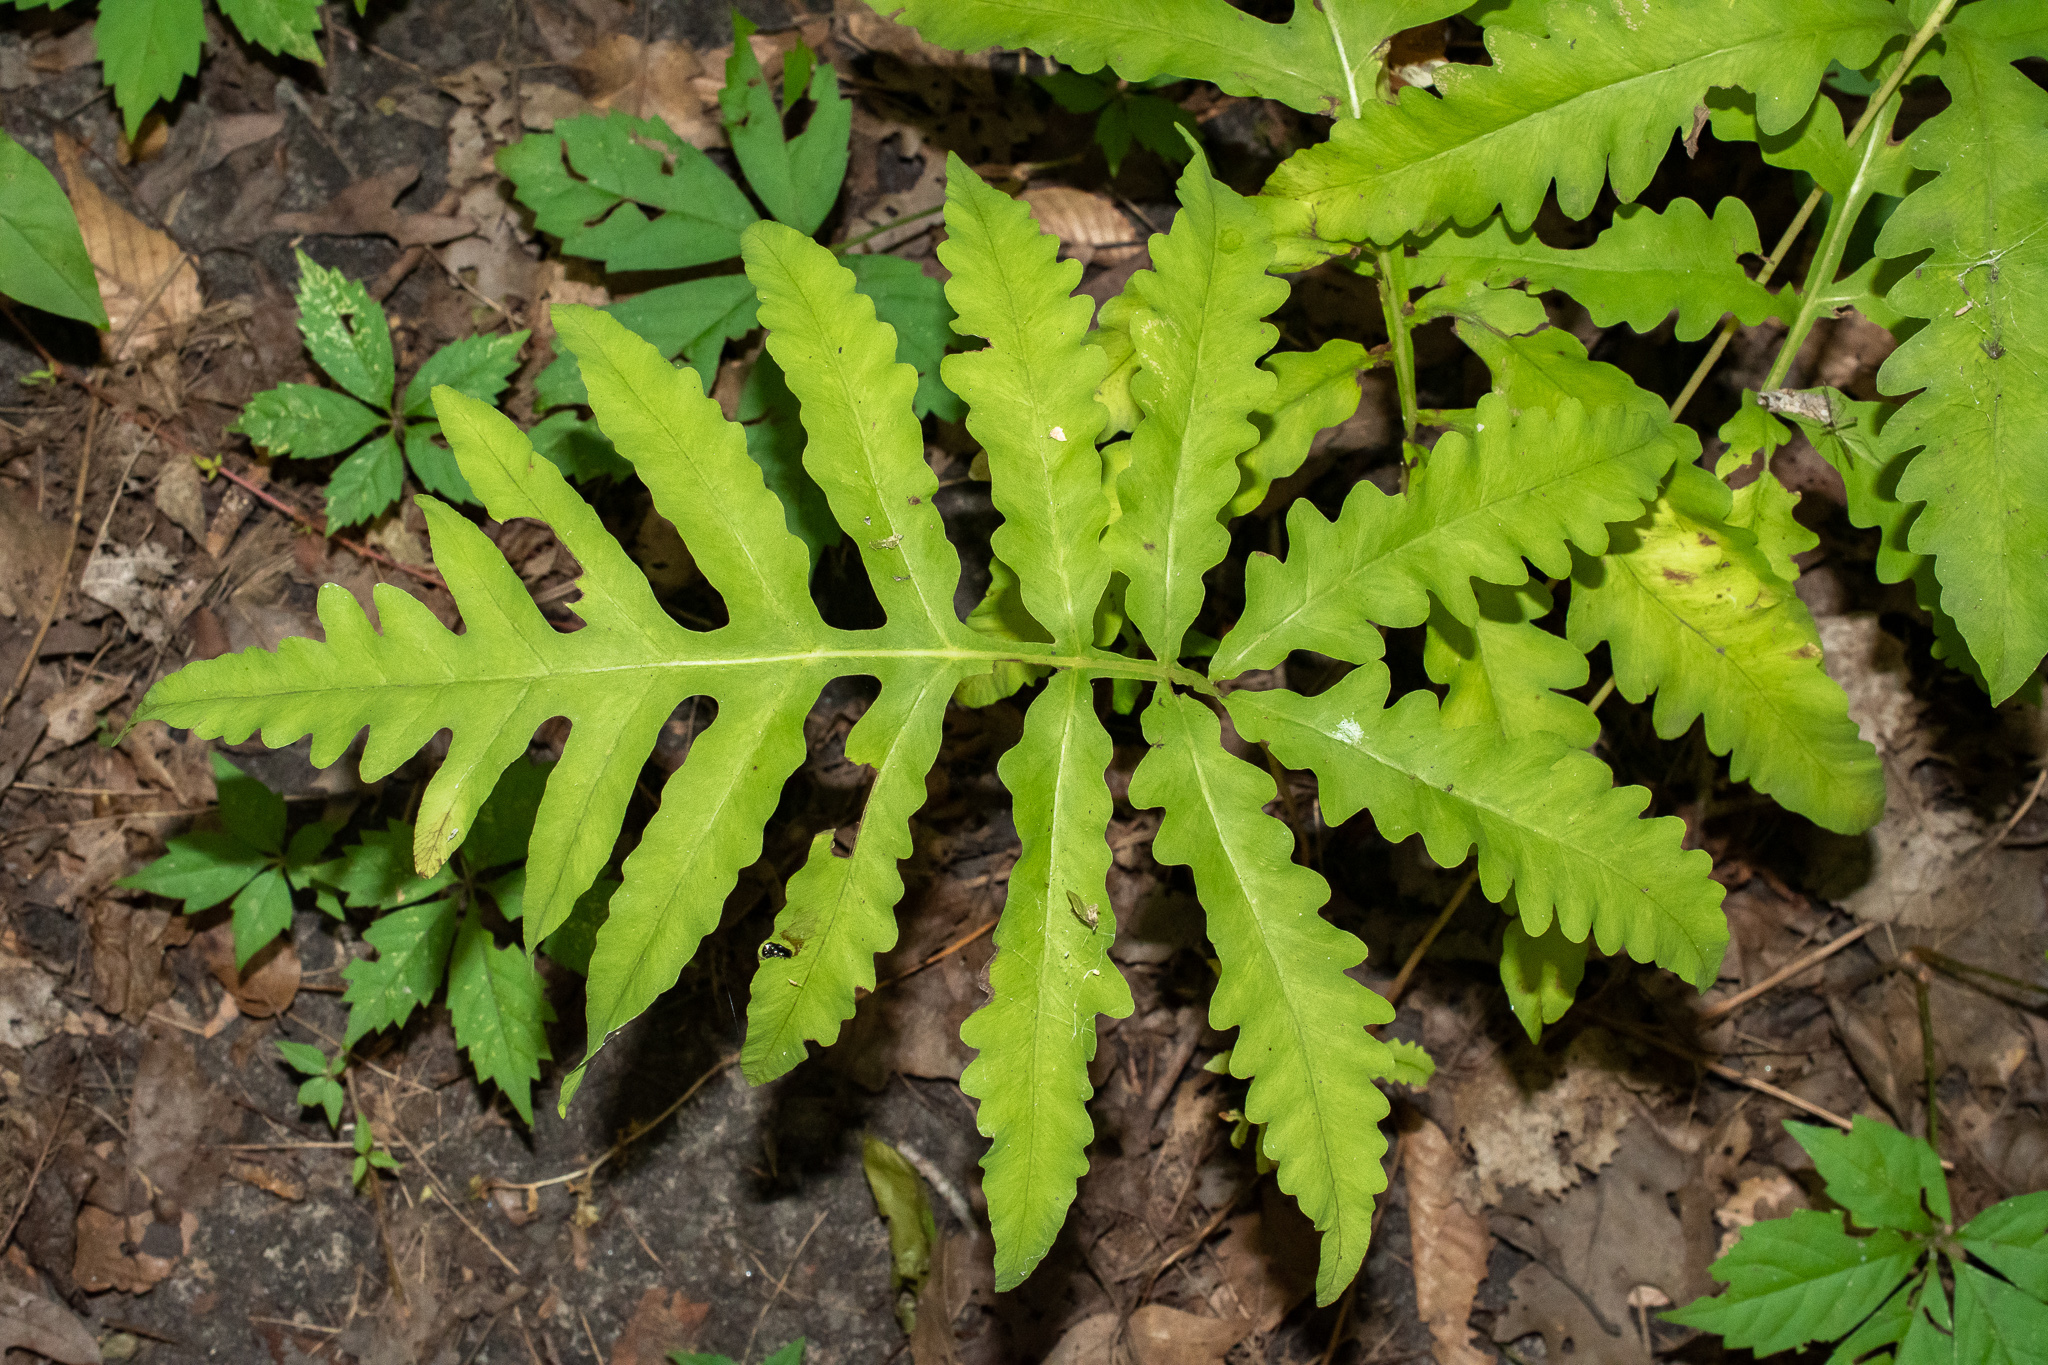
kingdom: Plantae
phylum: Tracheophyta
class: Polypodiopsida
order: Polypodiales
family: Onocleaceae
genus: Onoclea
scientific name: Onoclea sensibilis
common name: Sensitive fern
